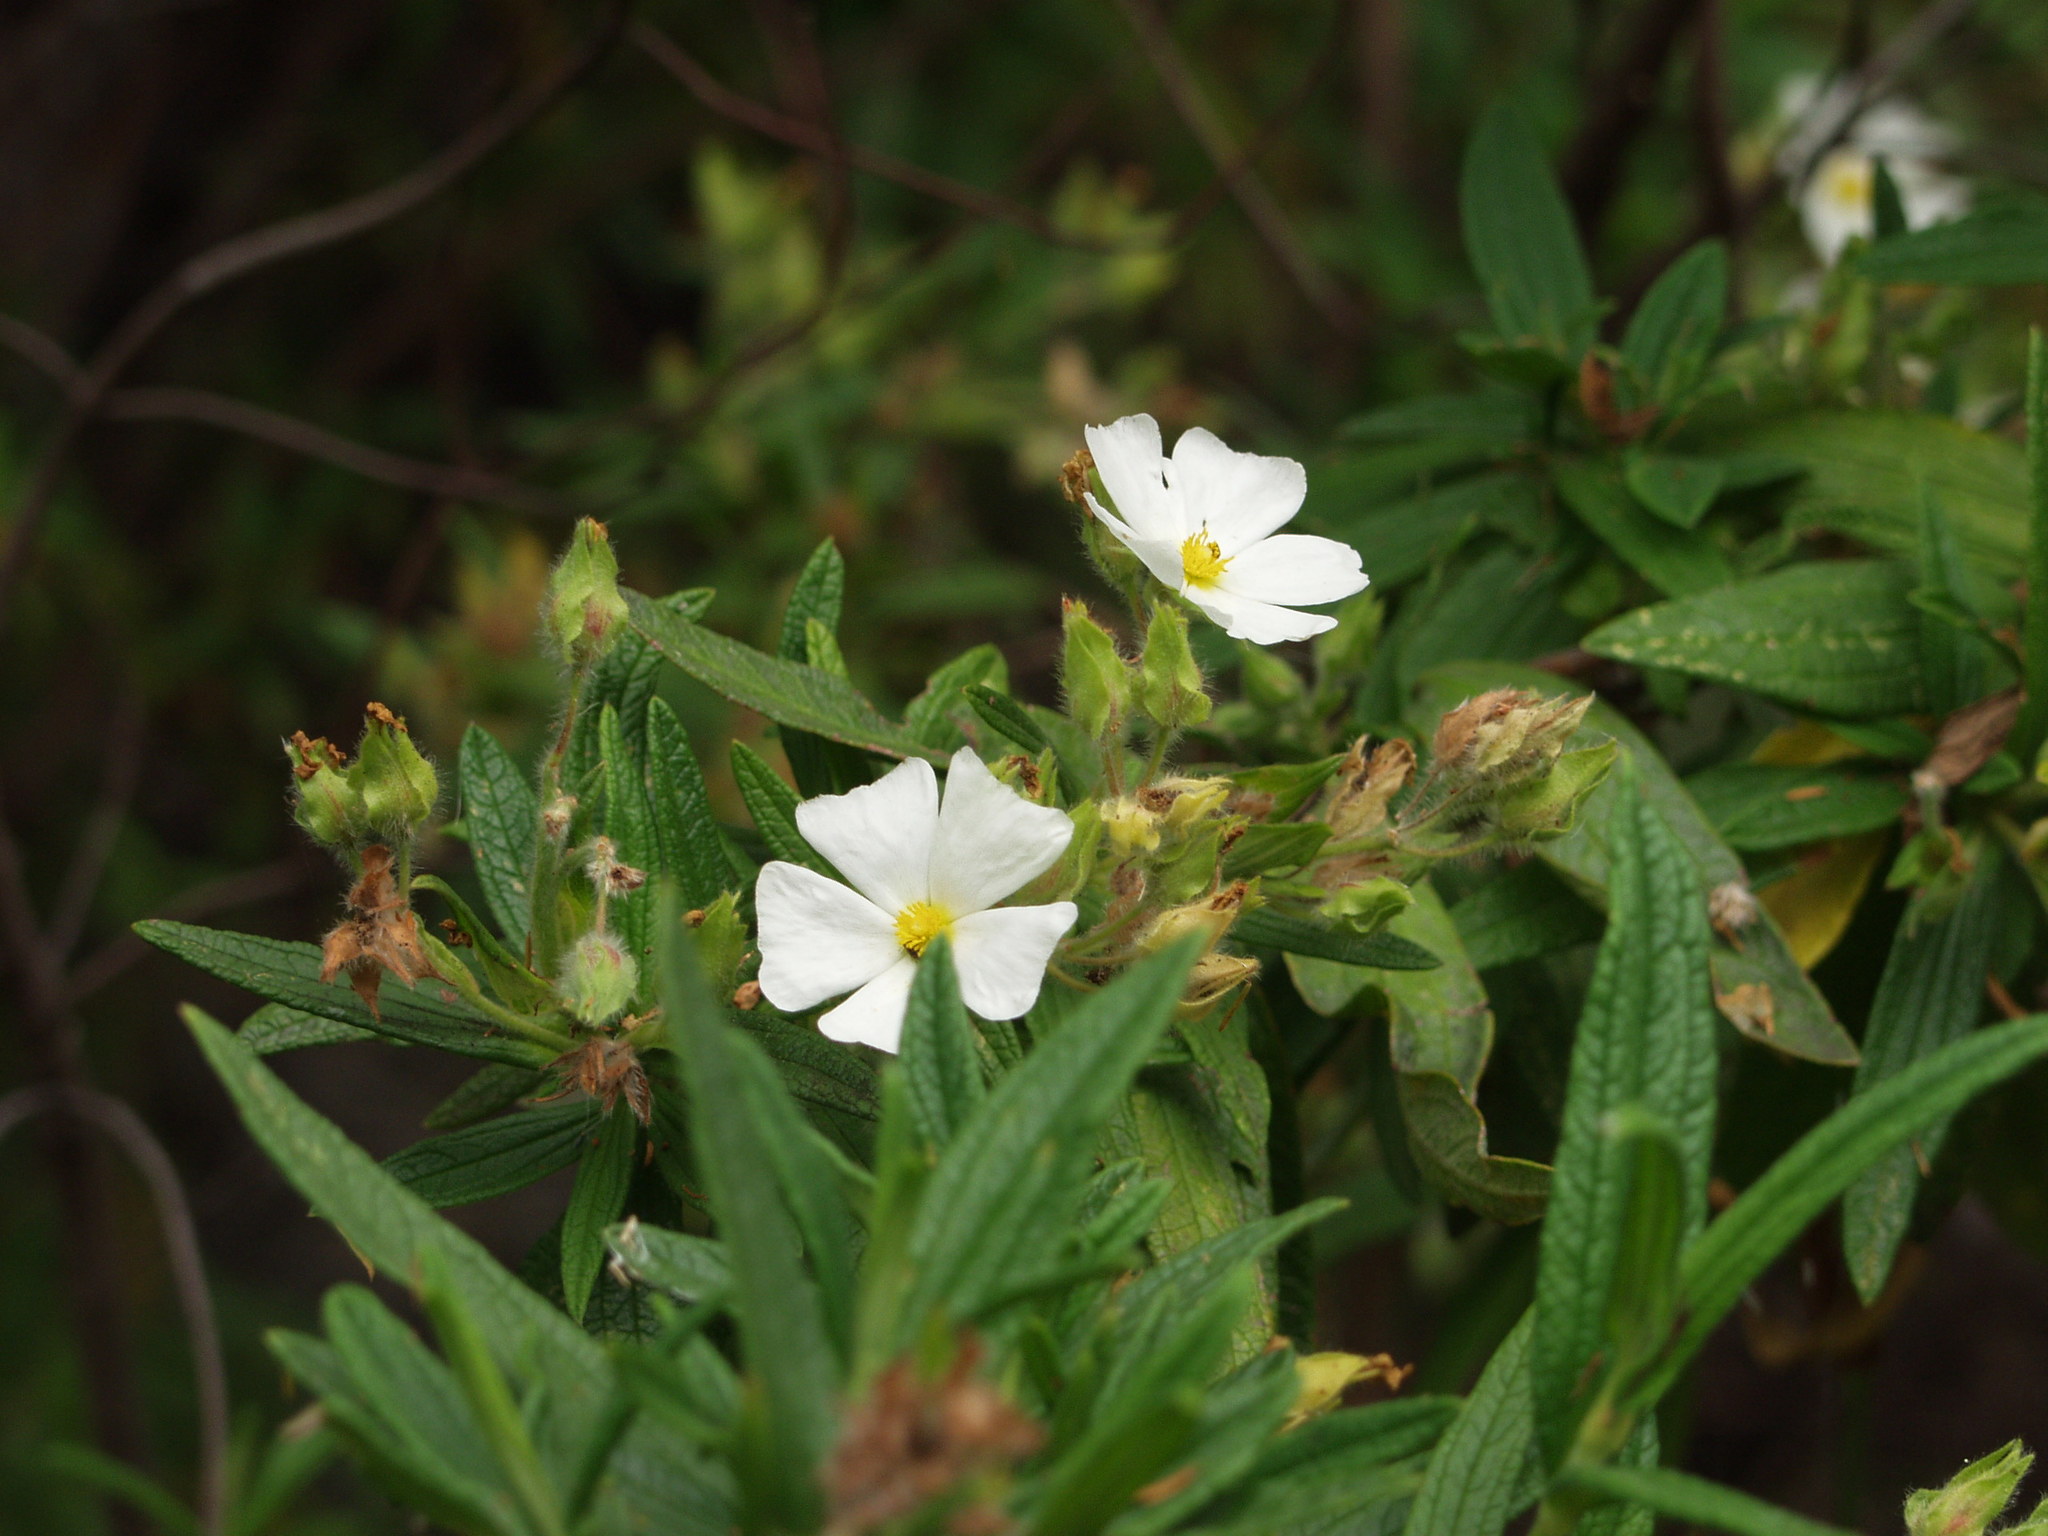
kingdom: Plantae
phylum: Tracheophyta
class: Magnoliopsida
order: Malvales
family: Cistaceae
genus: Cistus
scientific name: Cistus monspeliensis
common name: Montpelier cistus
